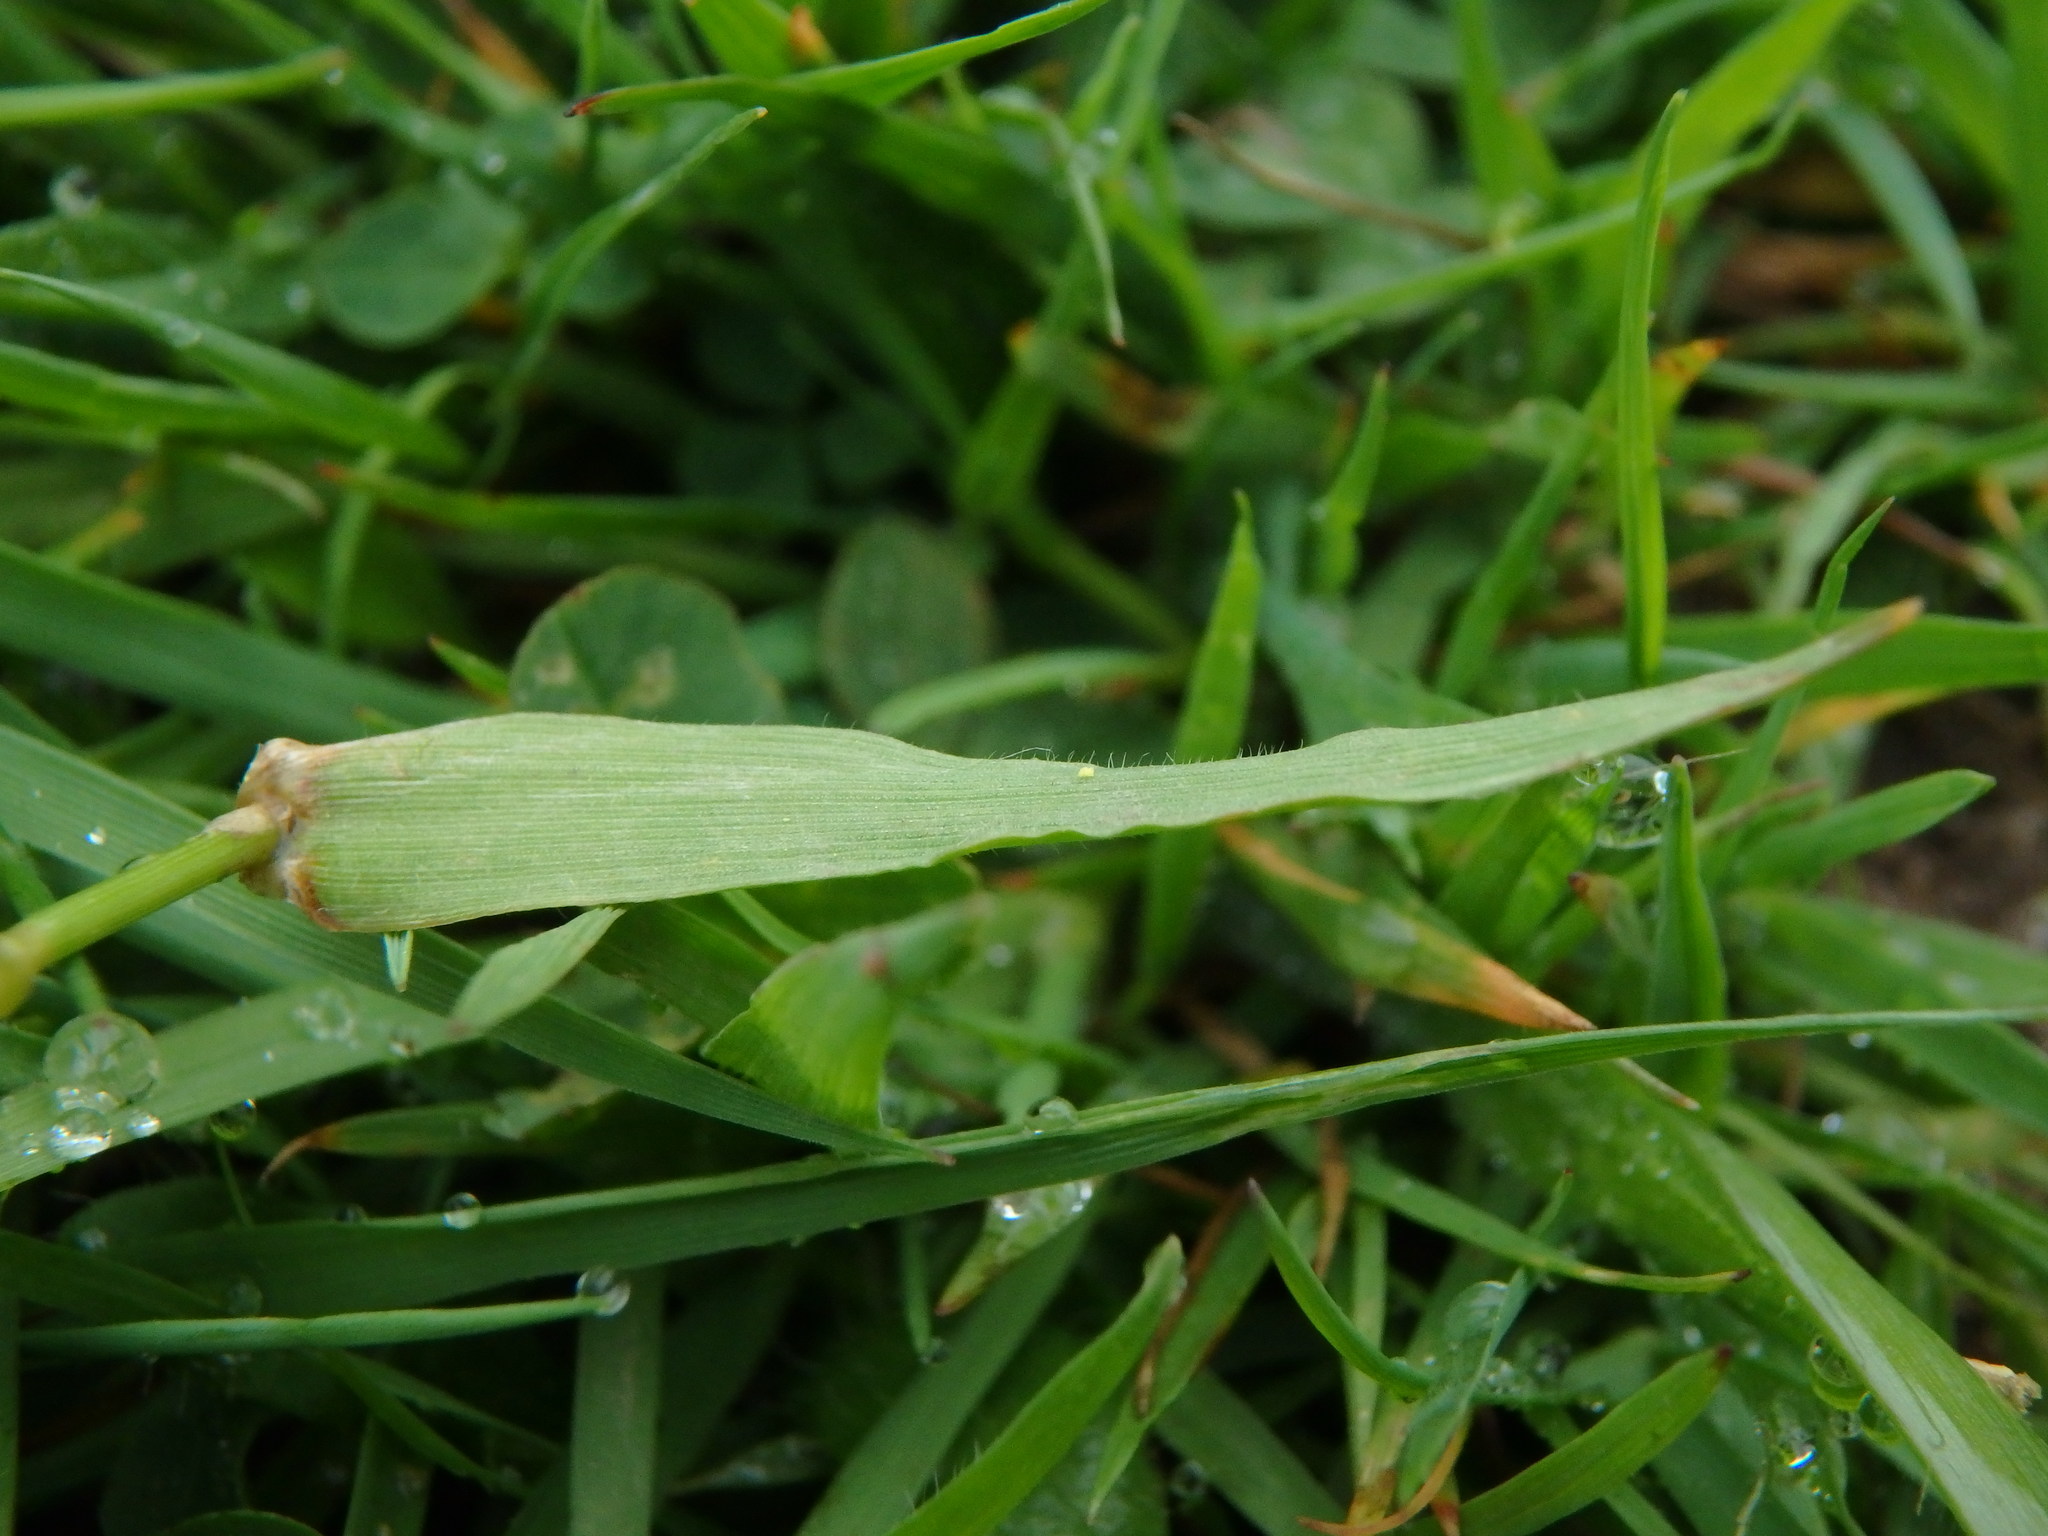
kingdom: Plantae
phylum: Tracheophyta
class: Liliopsida
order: Poales
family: Poaceae
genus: Anthoxanthum
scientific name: Anthoxanthum odoratum
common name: Sweet vernalgrass
